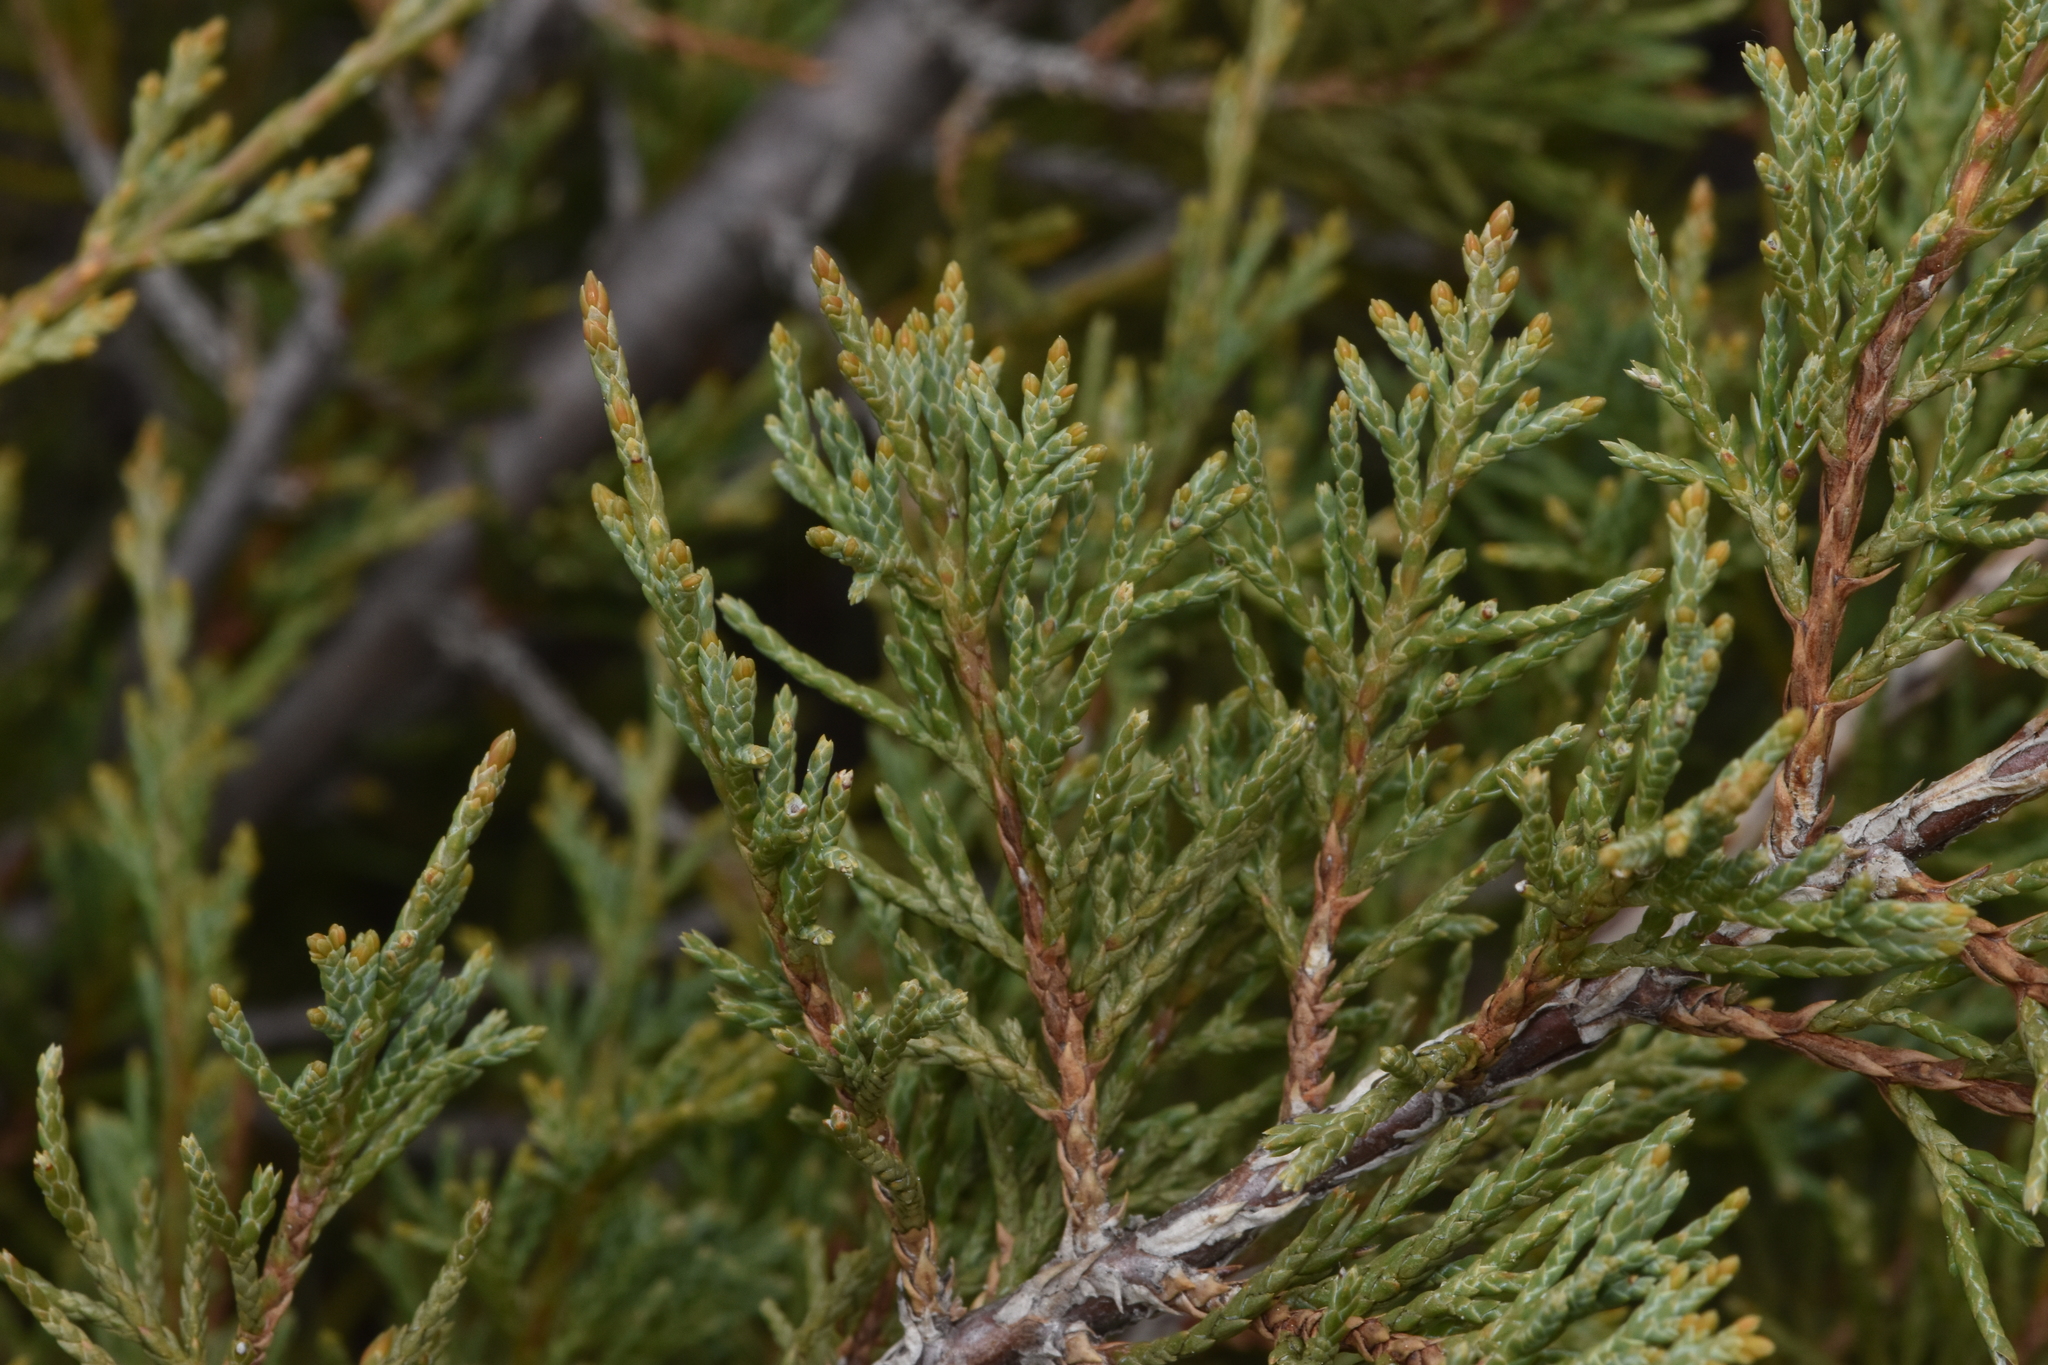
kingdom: Plantae
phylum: Tracheophyta
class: Pinopsida
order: Pinales
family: Cupressaceae
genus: Juniperus
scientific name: Juniperus scopulorum
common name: Rocky mountain juniper
